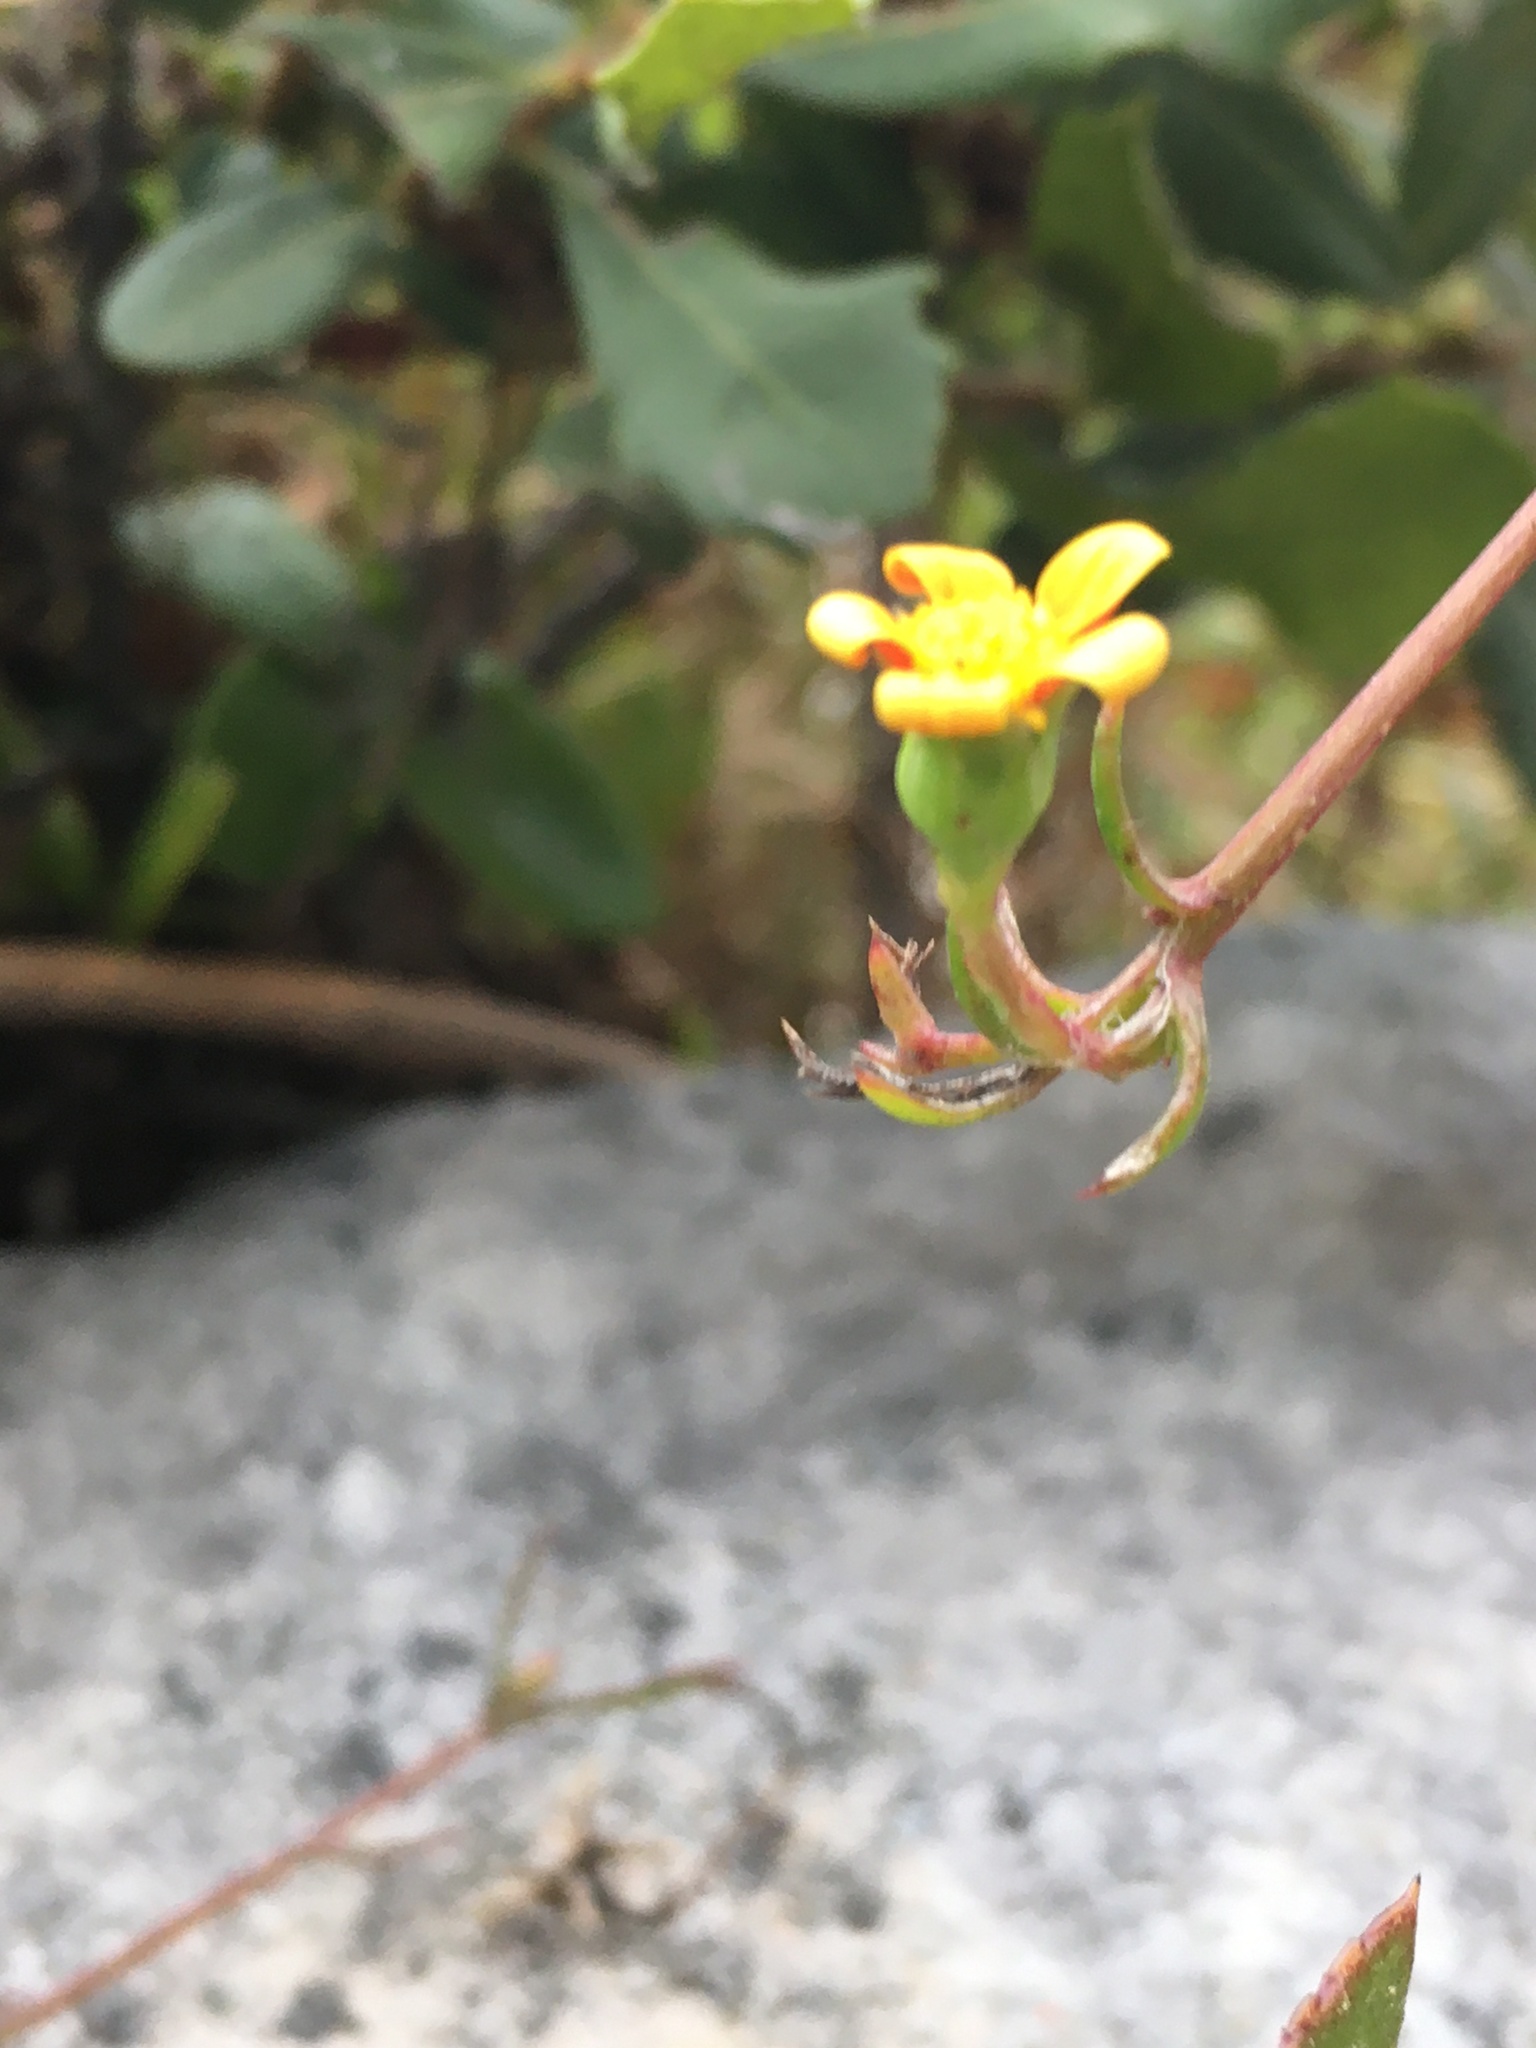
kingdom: Plantae
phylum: Tracheophyta
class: Magnoliopsida
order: Asterales
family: Asteraceae
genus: Osteospermum
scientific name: Osteospermum ciliatum
